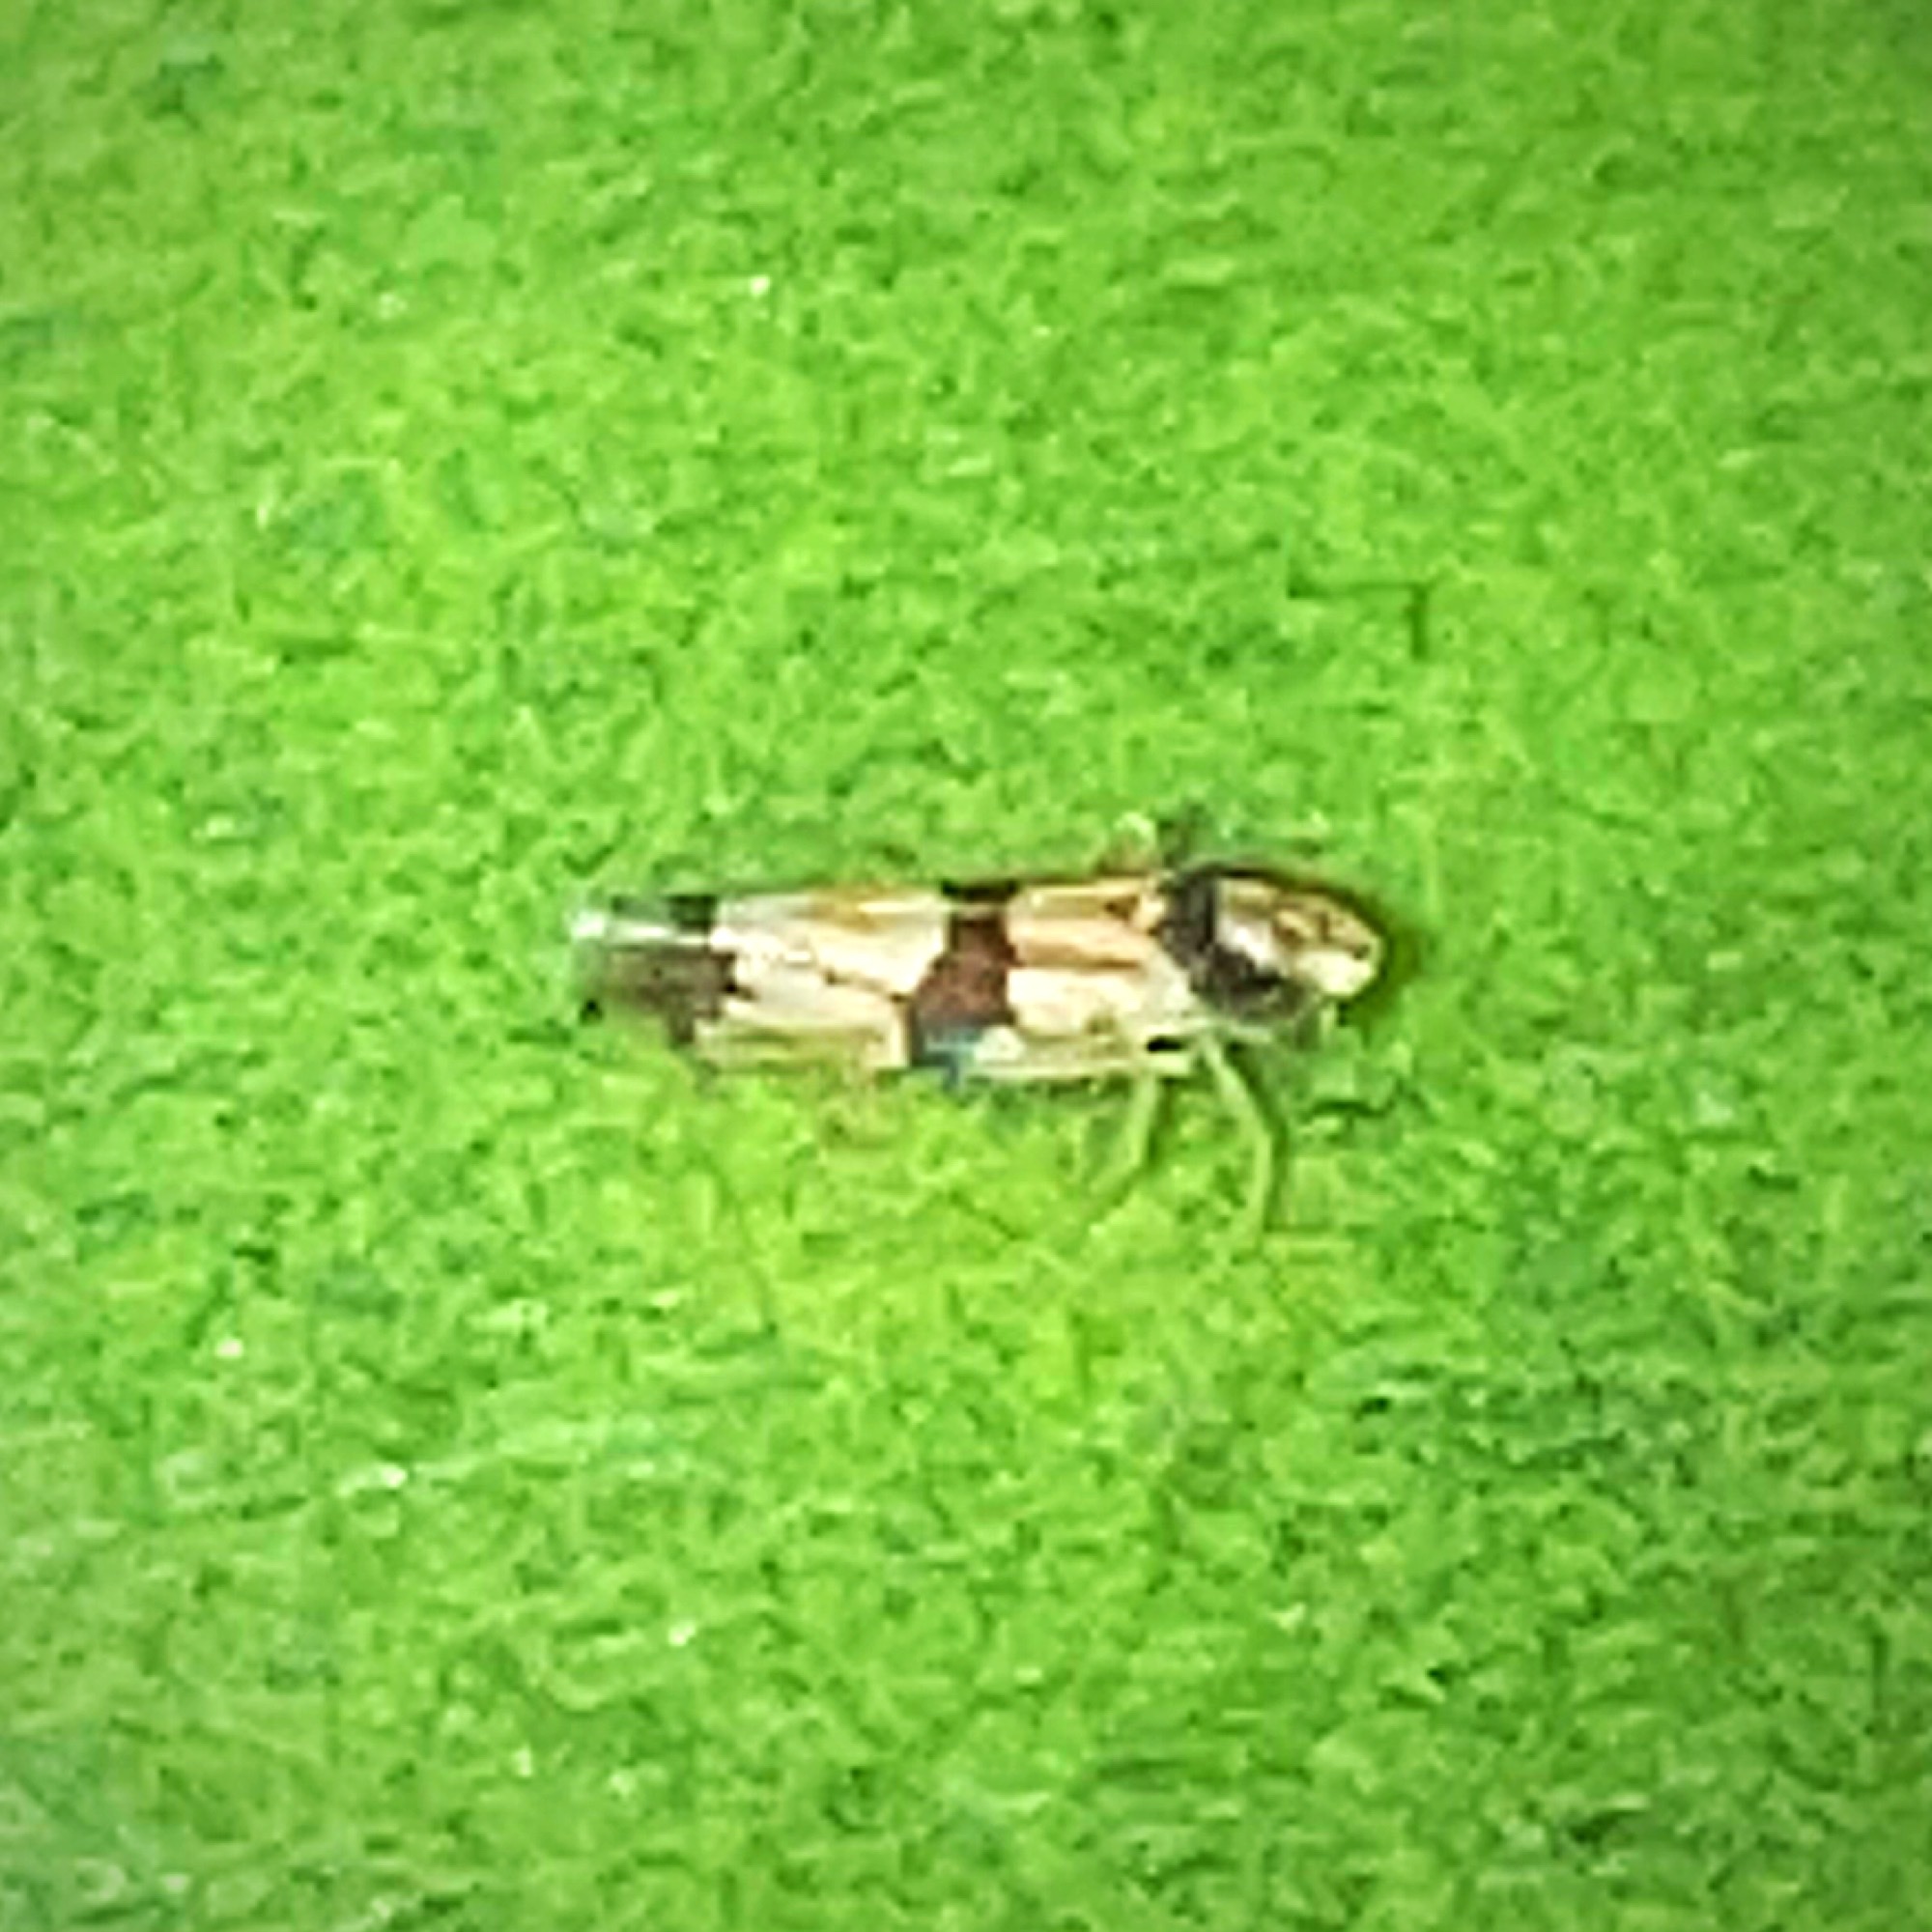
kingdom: Animalia
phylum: Arthropoda
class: Insecta
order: Hemiptera
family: Cicadellidae
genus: Erythroneura
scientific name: Erythroneura calycula
